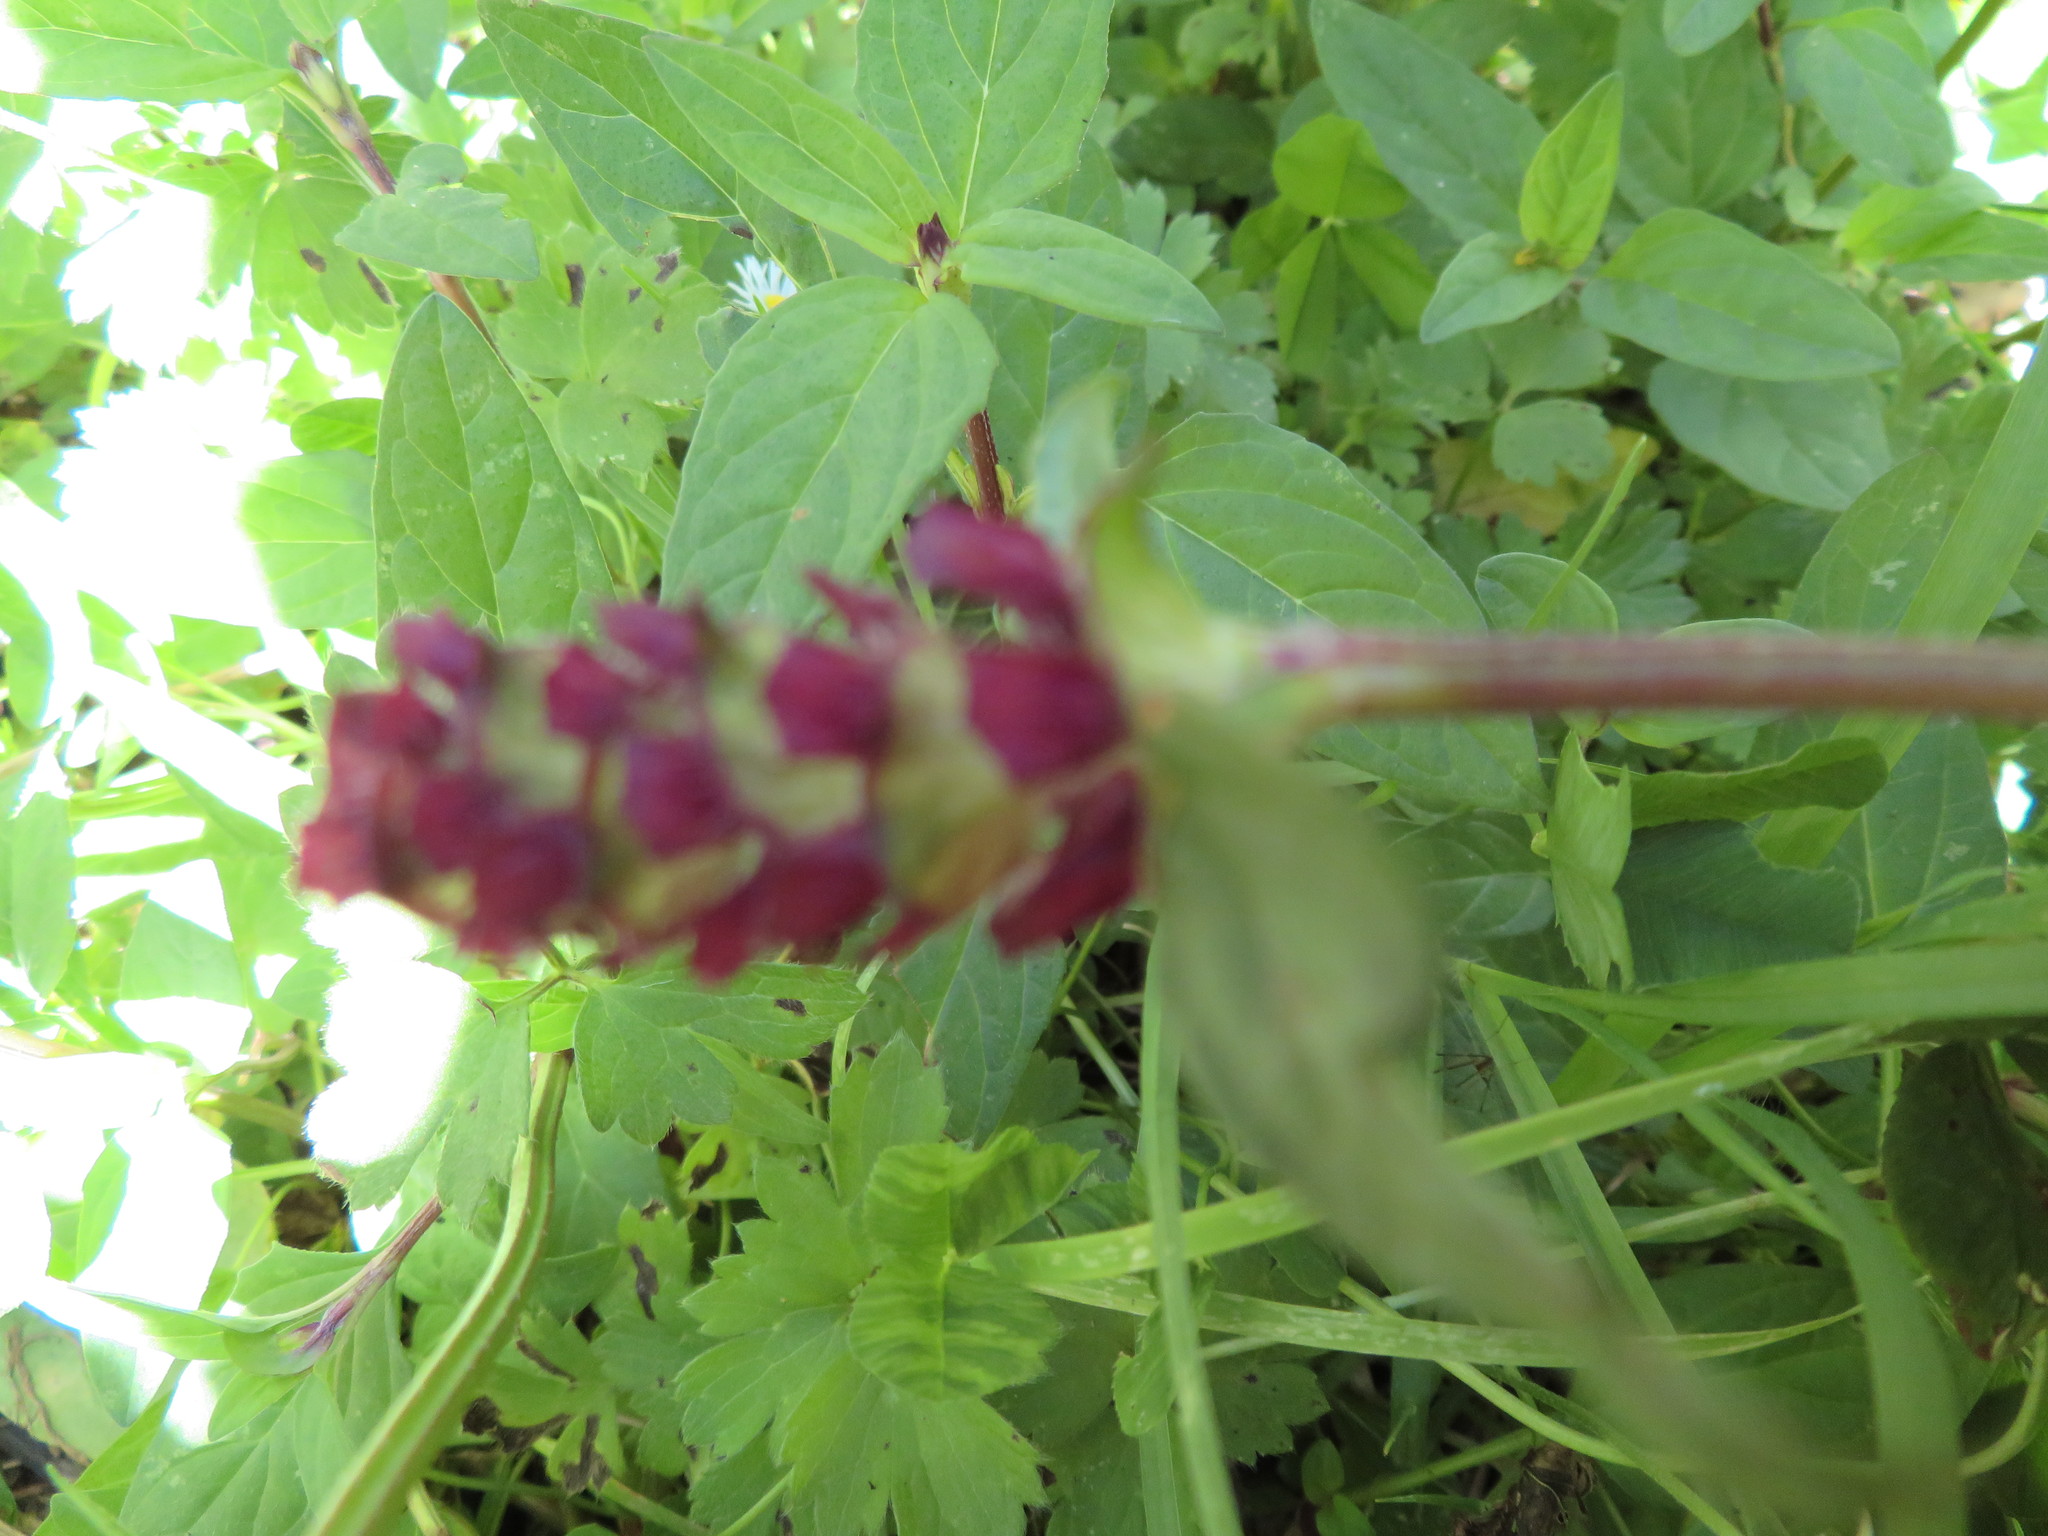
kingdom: Plantae
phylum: Tracheophyta
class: Magnoliopsida
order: Lamiales
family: Lamiaceae
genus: Prunella
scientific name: Prunella vulgaris
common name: Heal-all
